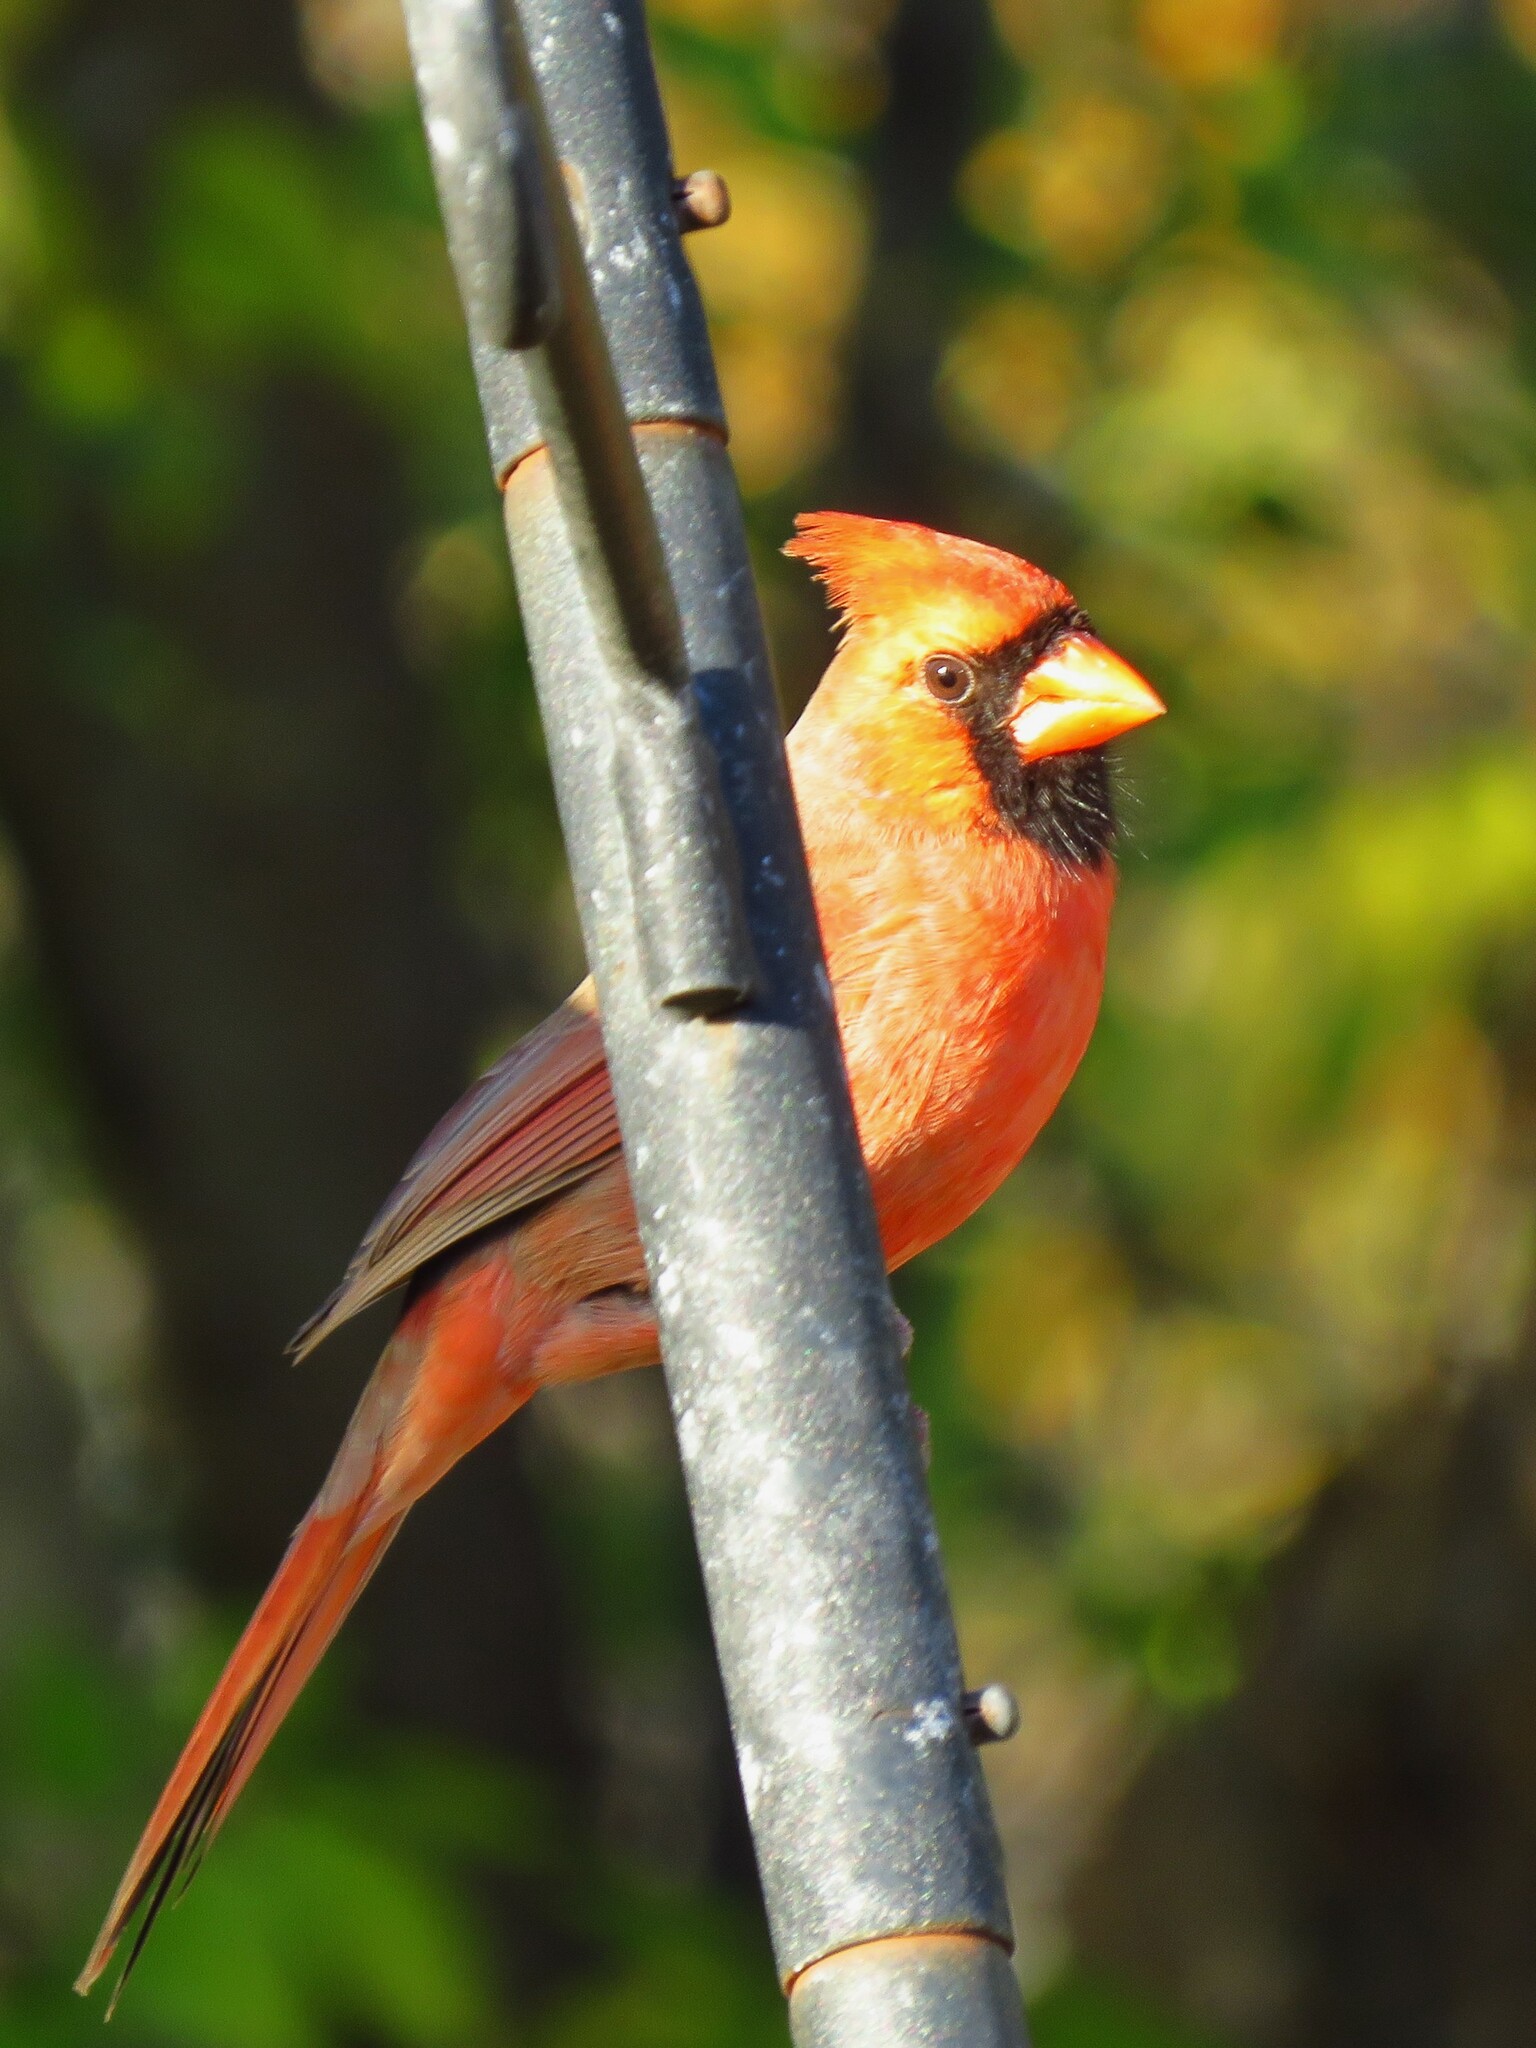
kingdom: Animalia
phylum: Chordata
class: Aves
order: Passeriformes
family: Cardinalidae
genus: Cardinalis
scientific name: Cardinalis cardinalis
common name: Northern cardinal
